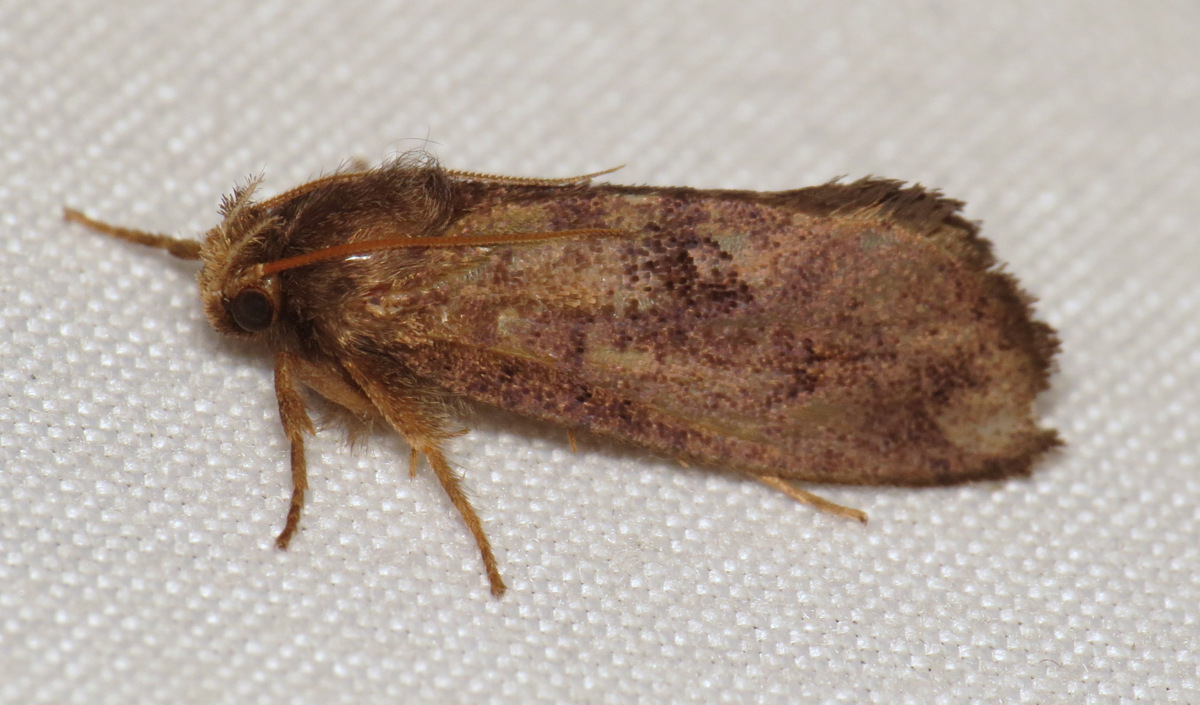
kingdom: Animalia
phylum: Arthropoda
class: Insecta
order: Lepidoptera
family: Tineidae
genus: Acrolophus
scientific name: Acrolophus mora
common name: Dark acrolophus
